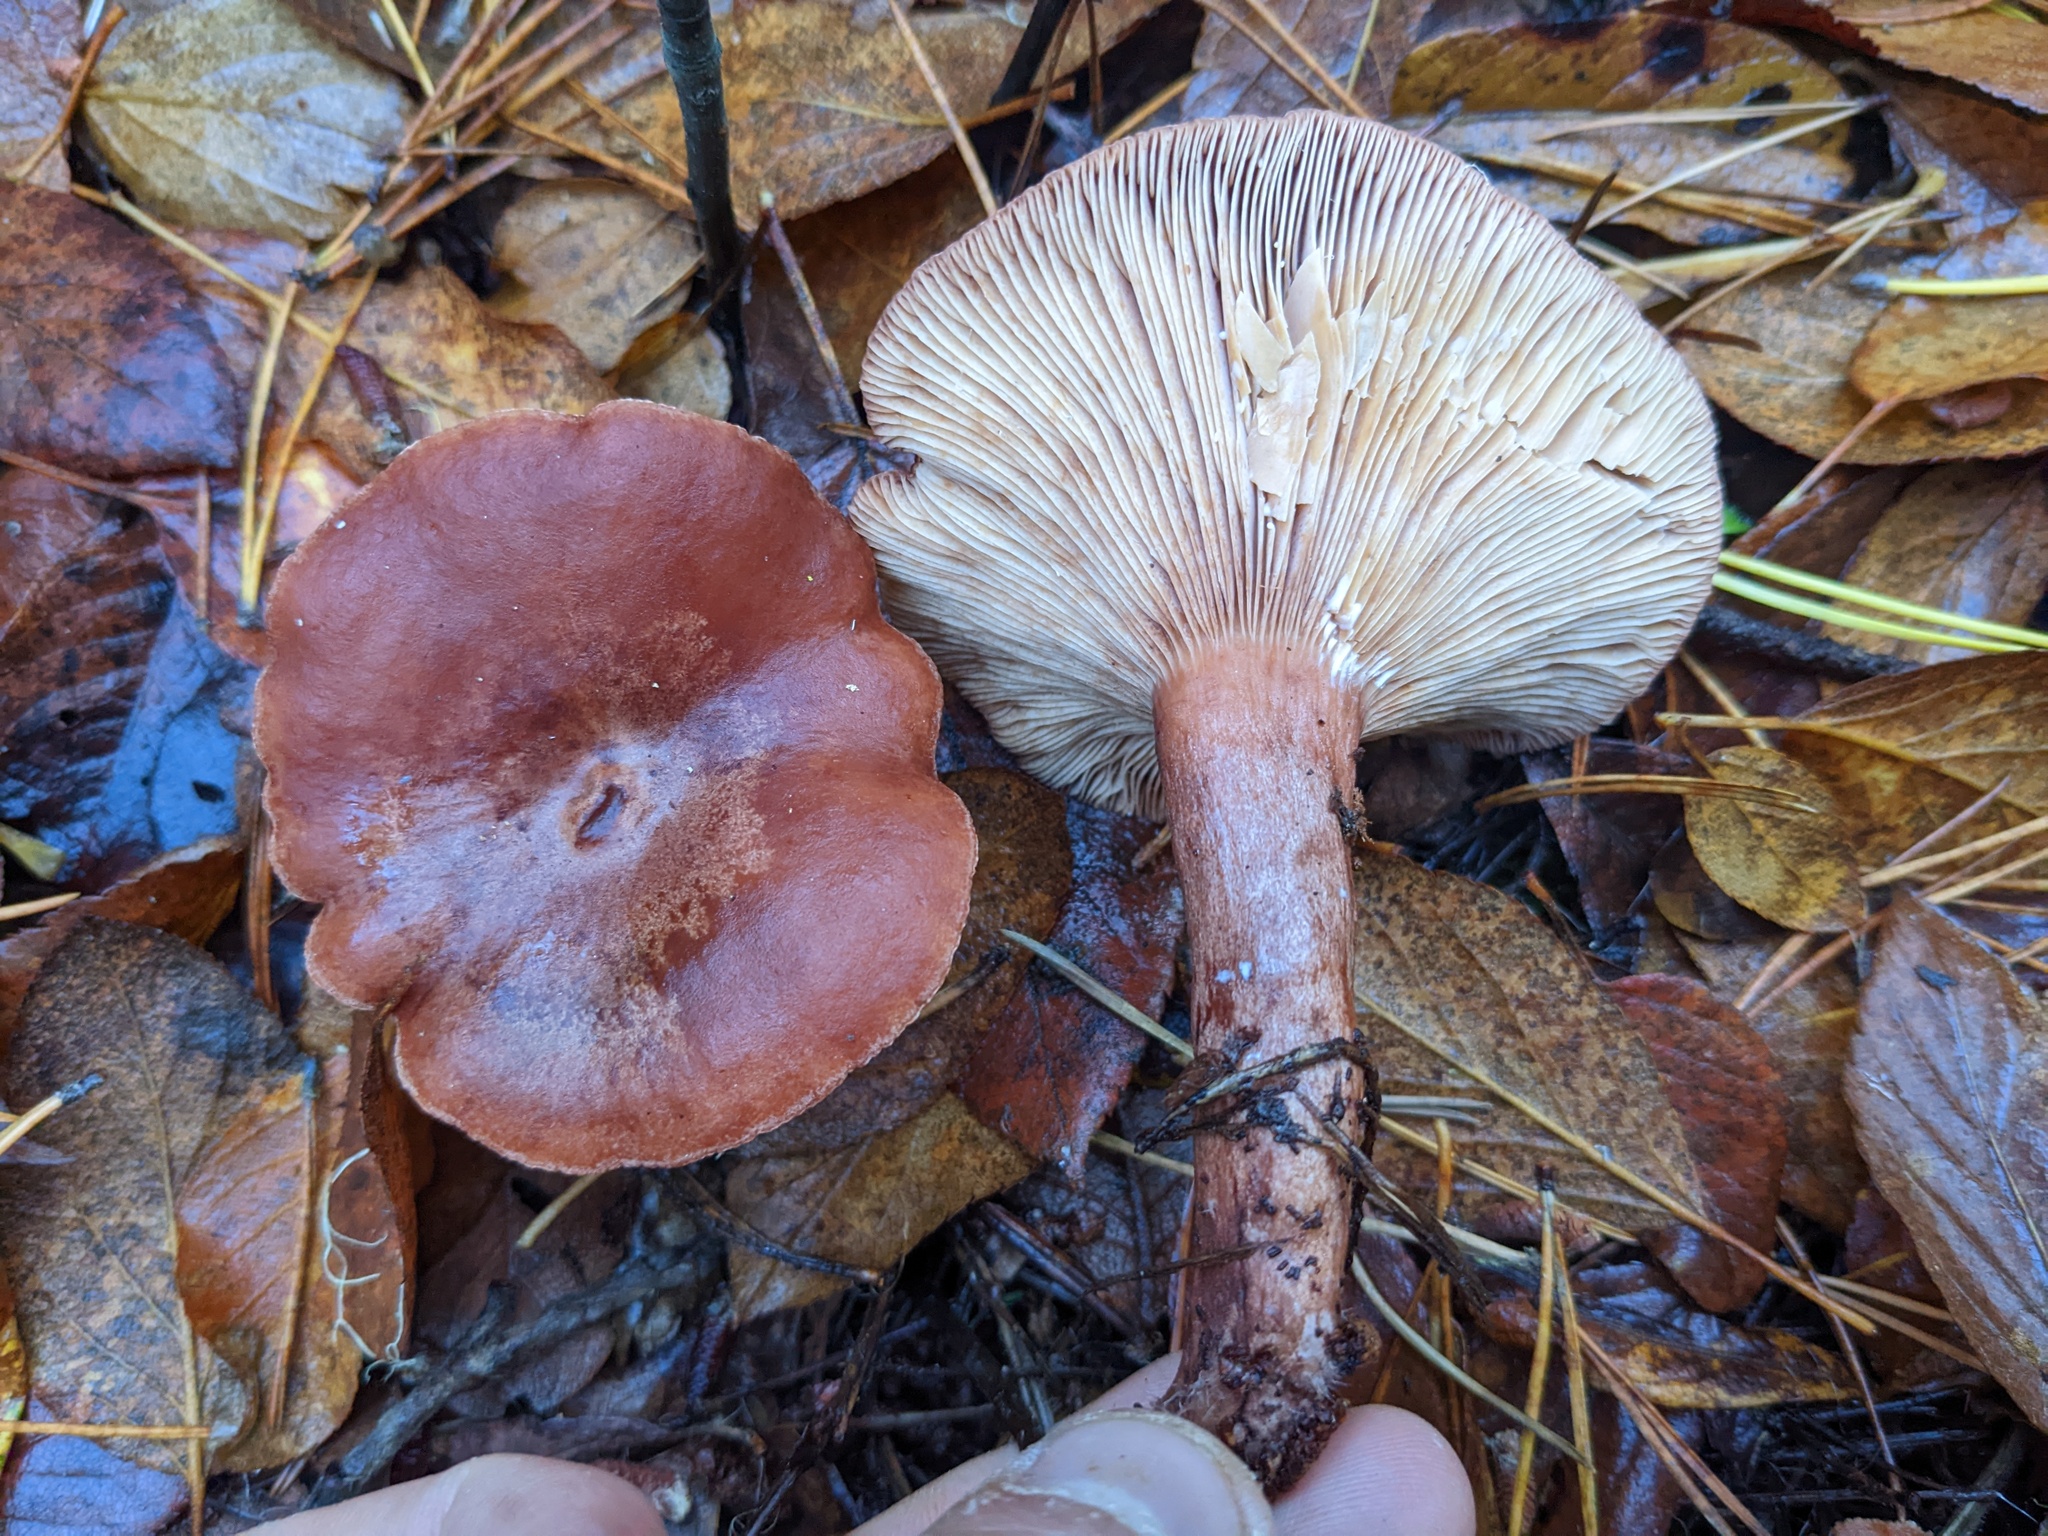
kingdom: Fungi
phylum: Basidiomycota
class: Agaricomycetes
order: Russulales
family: Russulaceae
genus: Lactarius
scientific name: Lactarius rufus
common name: Rufous milk-cap
